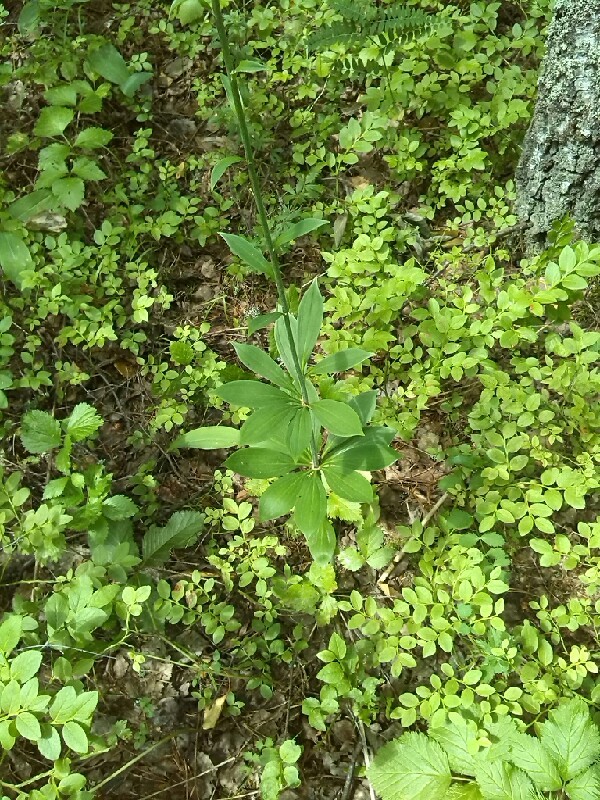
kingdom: Plantae
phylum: Tracheophyta
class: Liliopsida
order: Liliales
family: Liliaceae
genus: Lilium
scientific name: Lilium martagon
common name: Martagon lily
